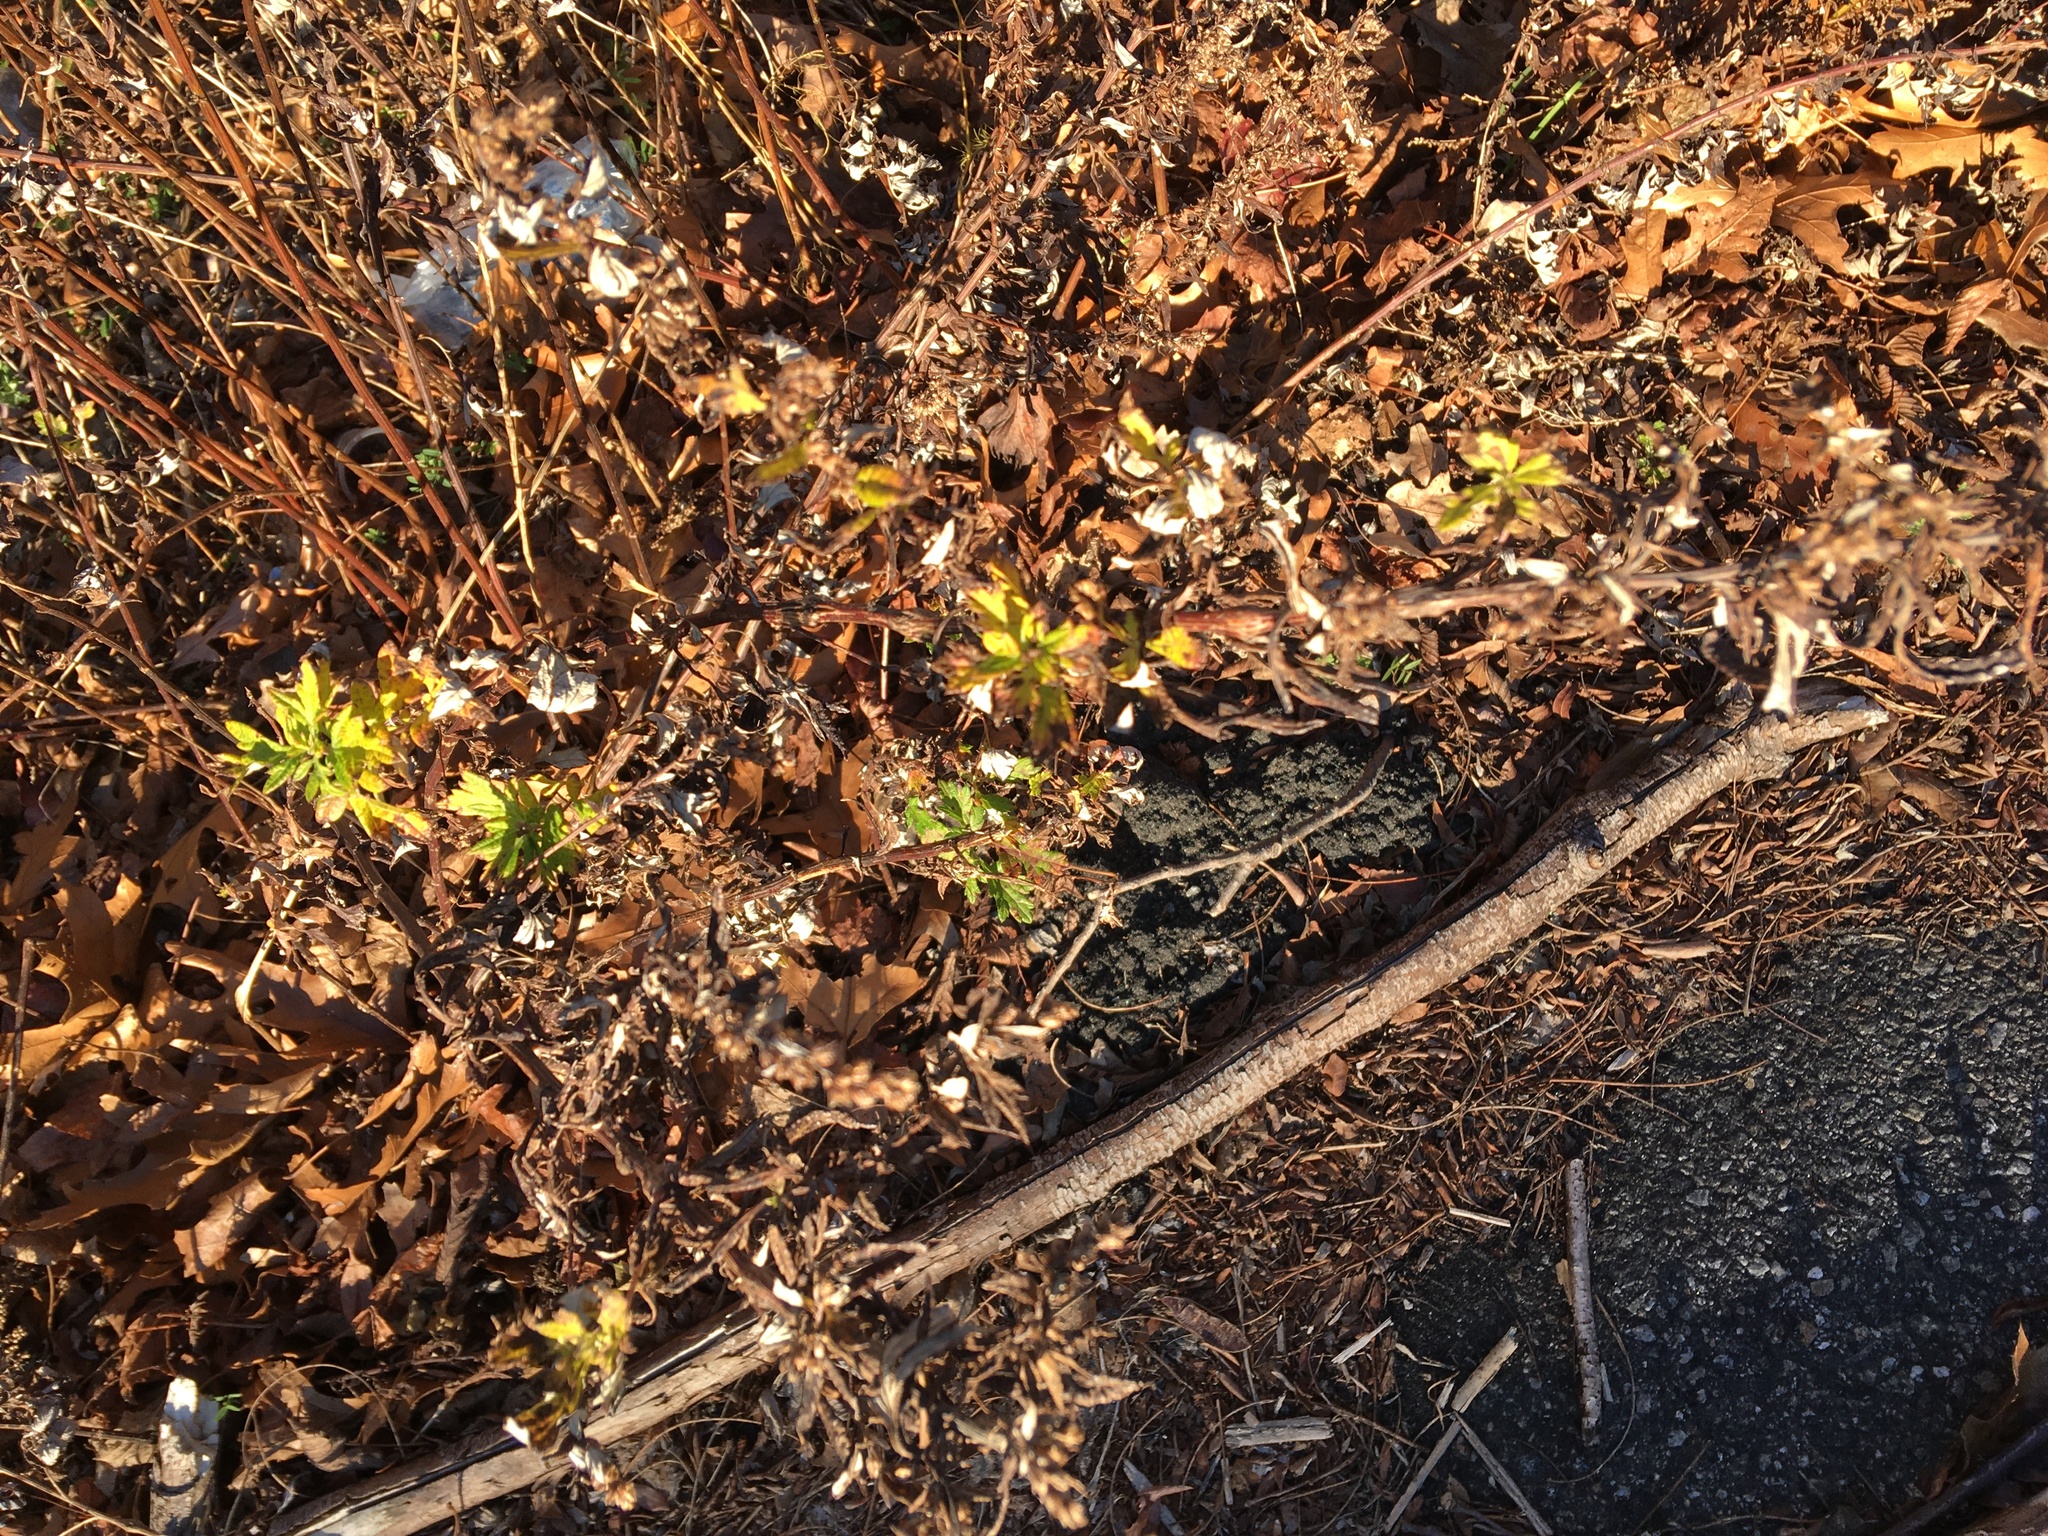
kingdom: Plantae
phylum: Tracheophyta
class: Magnoliopsida
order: Asterales
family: Asteraceae
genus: Artemisia
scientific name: Artemisia vulgaris
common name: Mugwort
